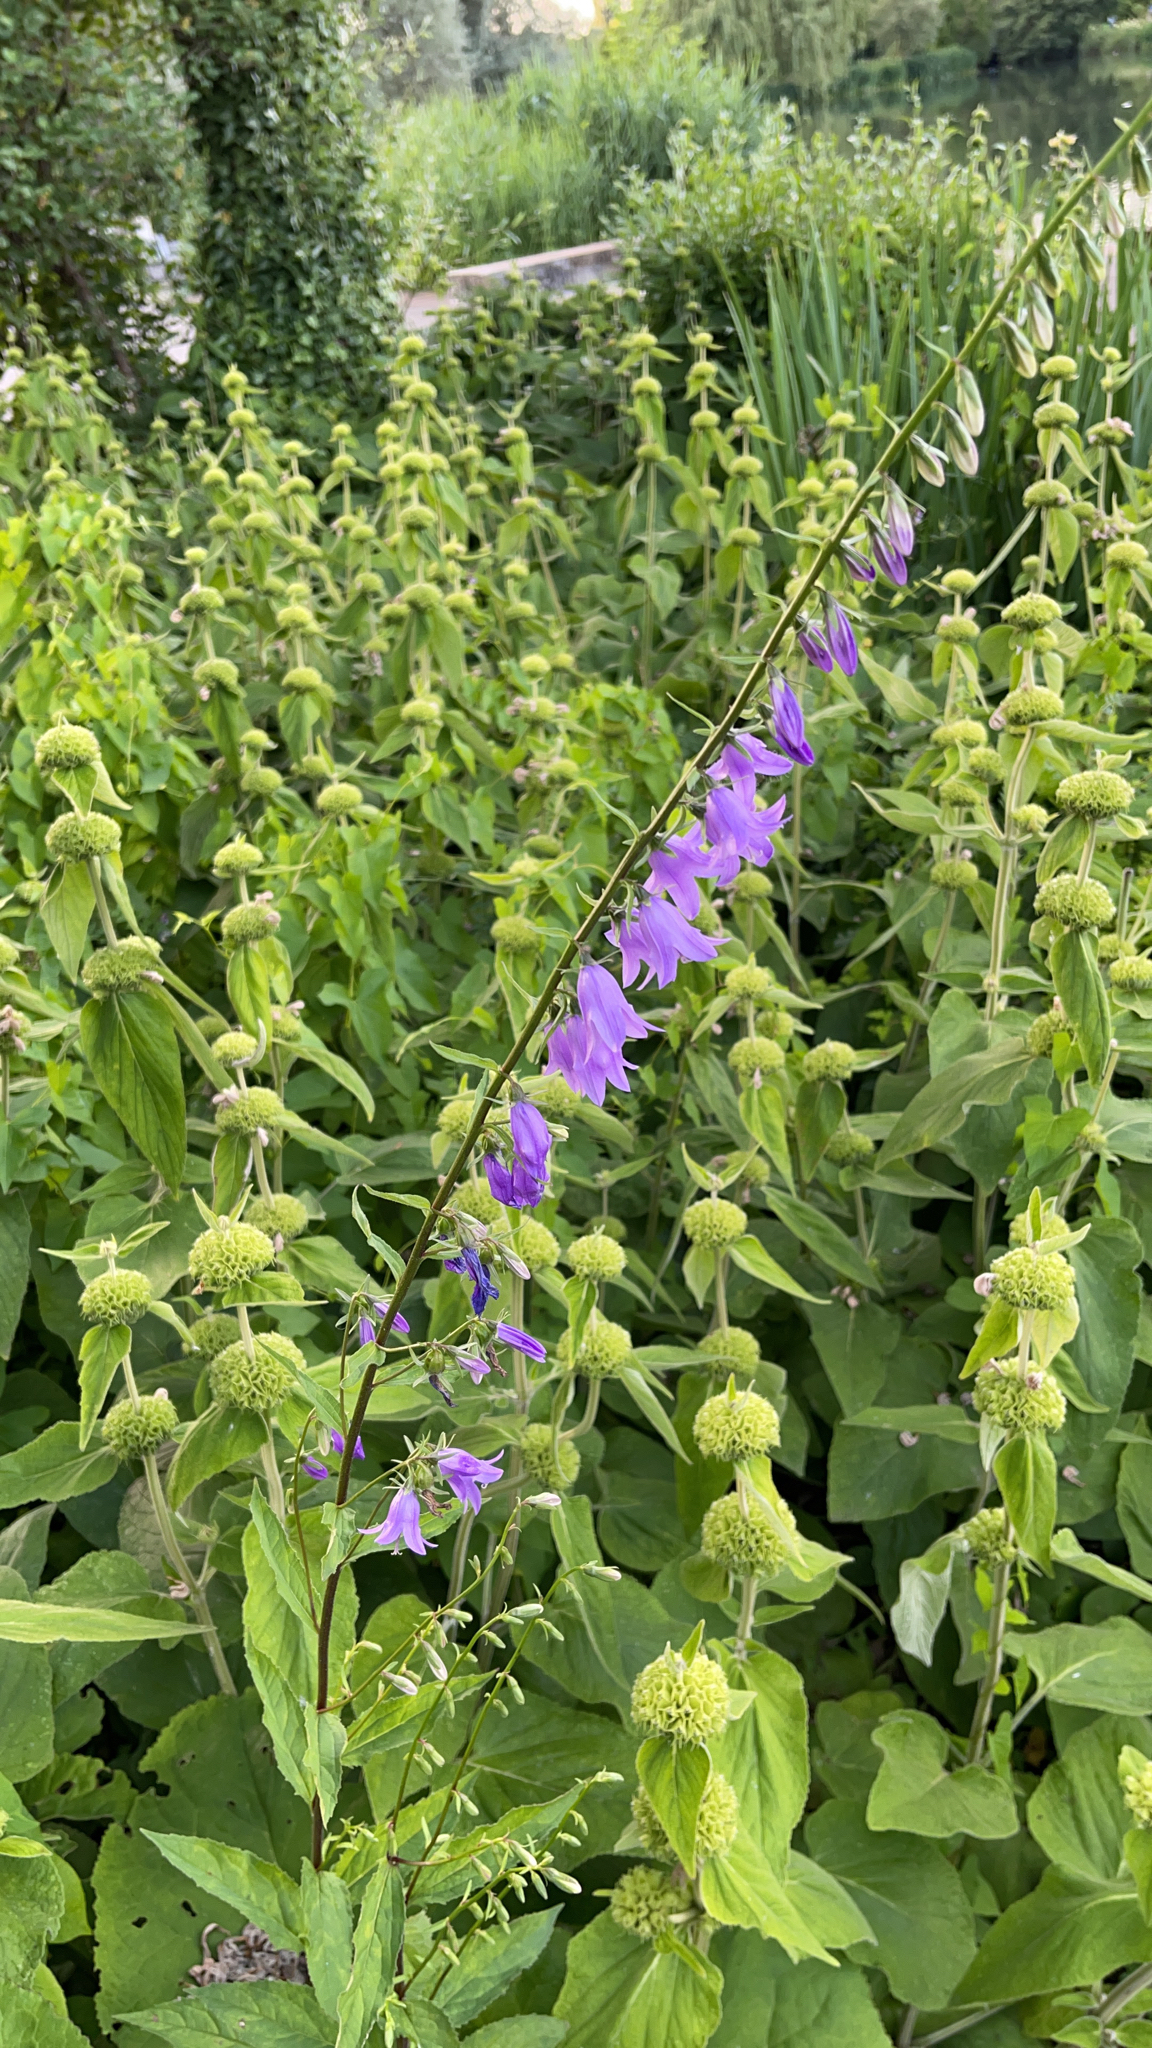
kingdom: Plantae
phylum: Tracheophyta
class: Magnoliopsida
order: Asterales
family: Campanulaceae
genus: Campanula
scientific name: Campanula rapunculoides
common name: Creeping bellflower
